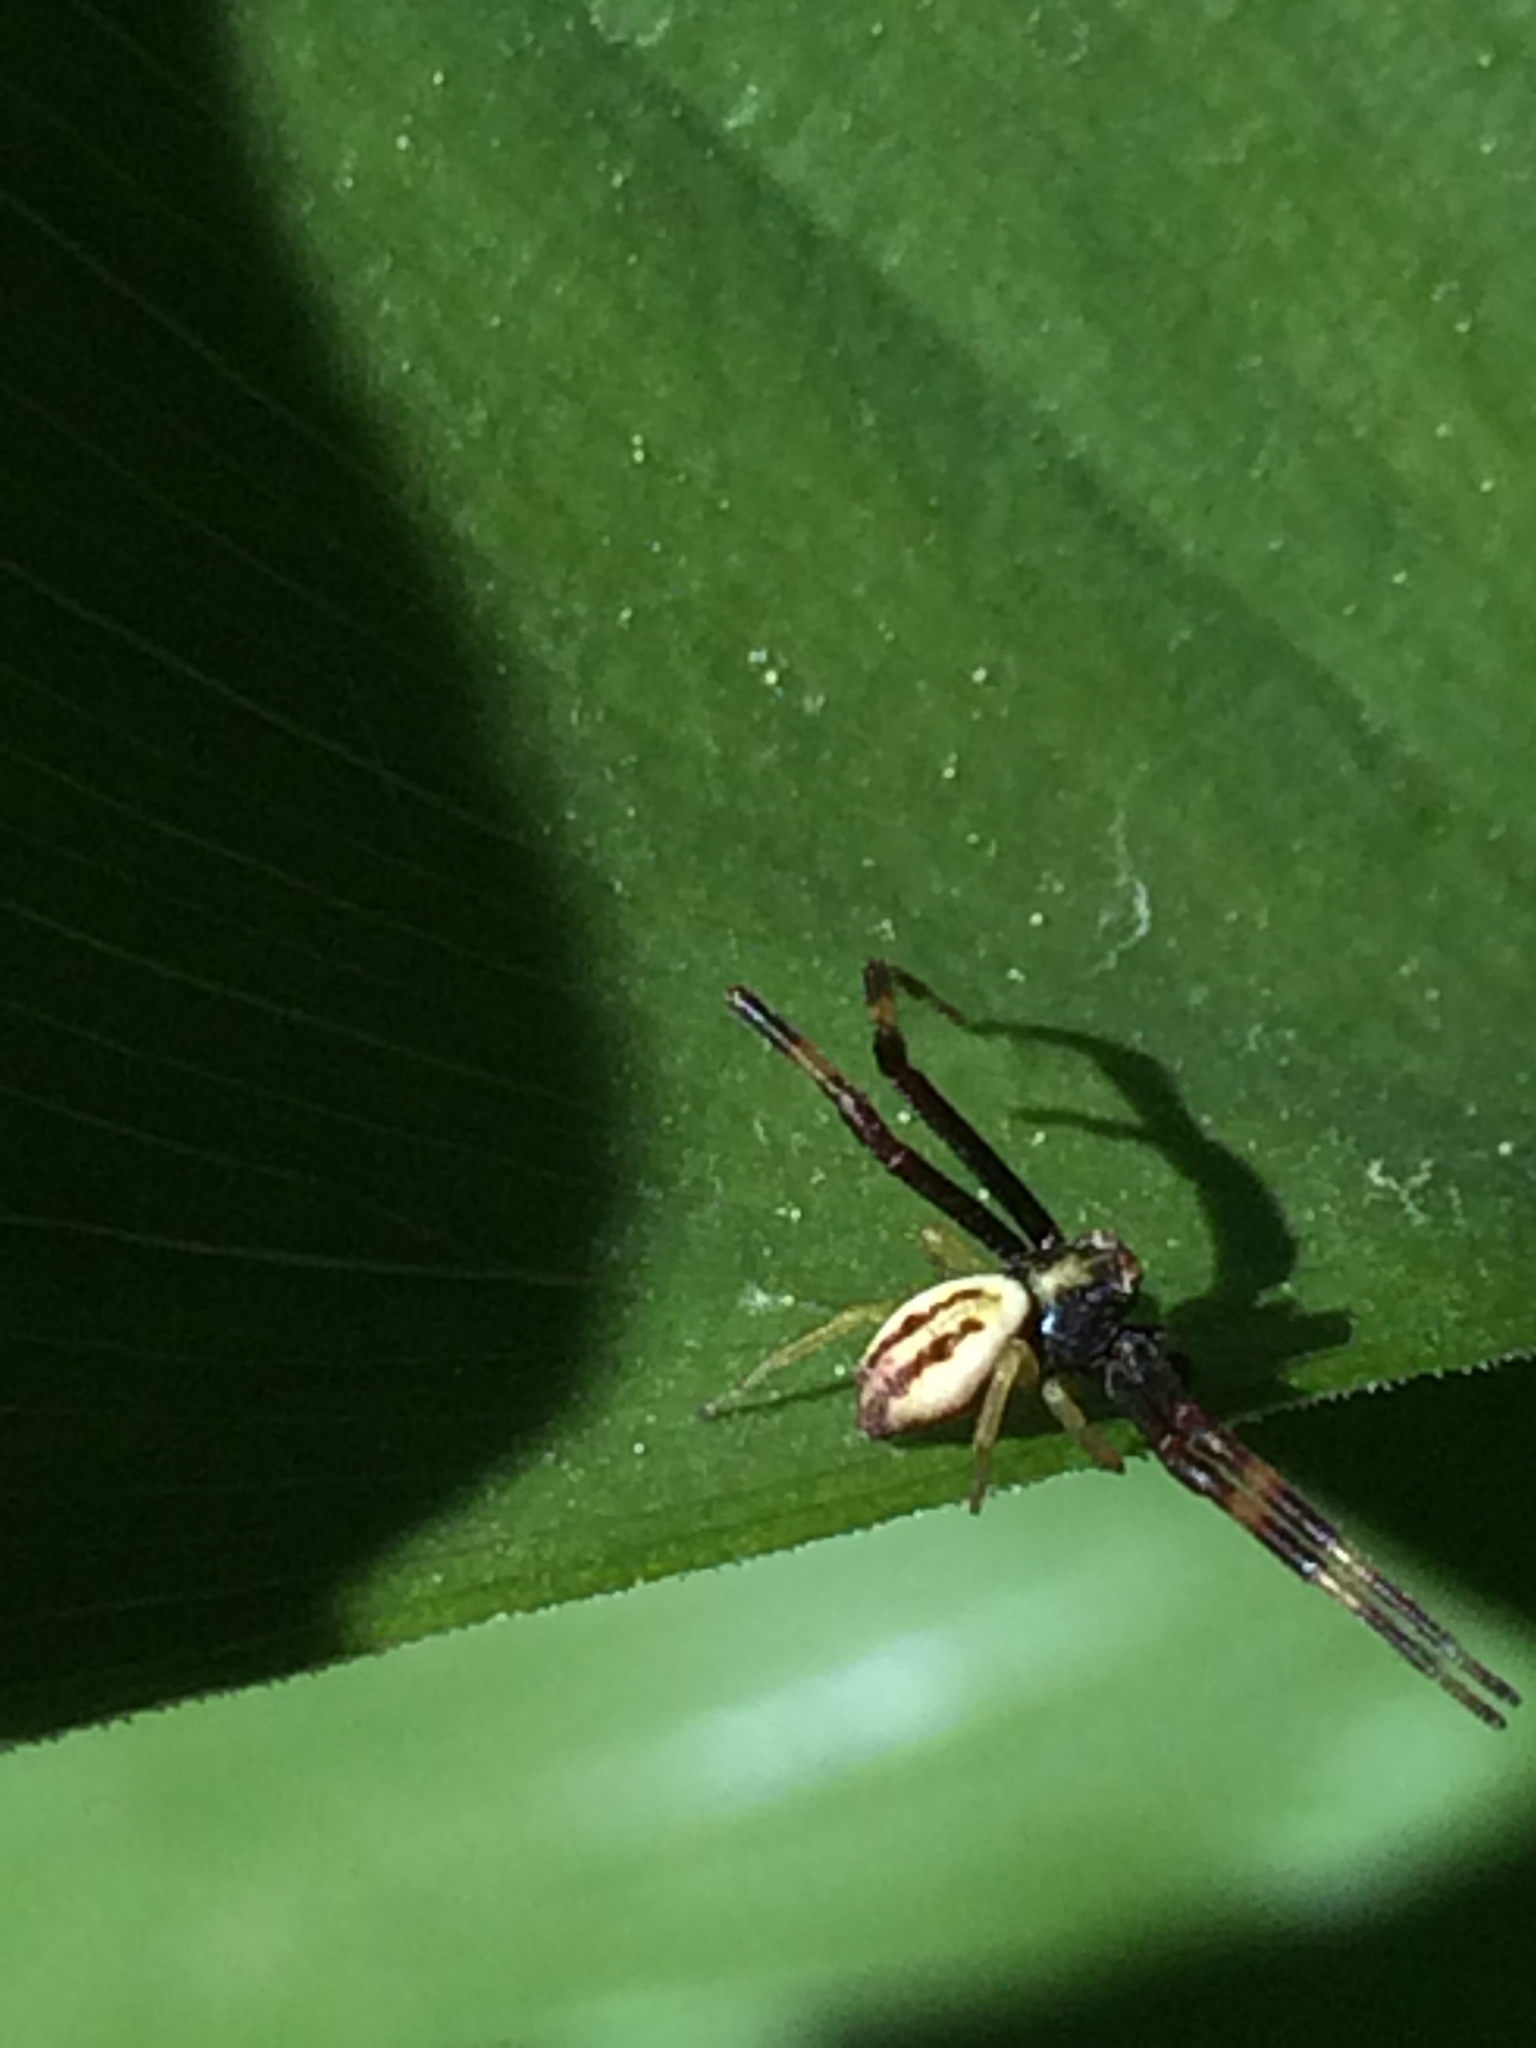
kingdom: Animalia
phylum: Arthropoda
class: Arachnida
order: Araneae
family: Thomisidae
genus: Misumena
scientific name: Misumena vatia
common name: Goldenrod crab spider
